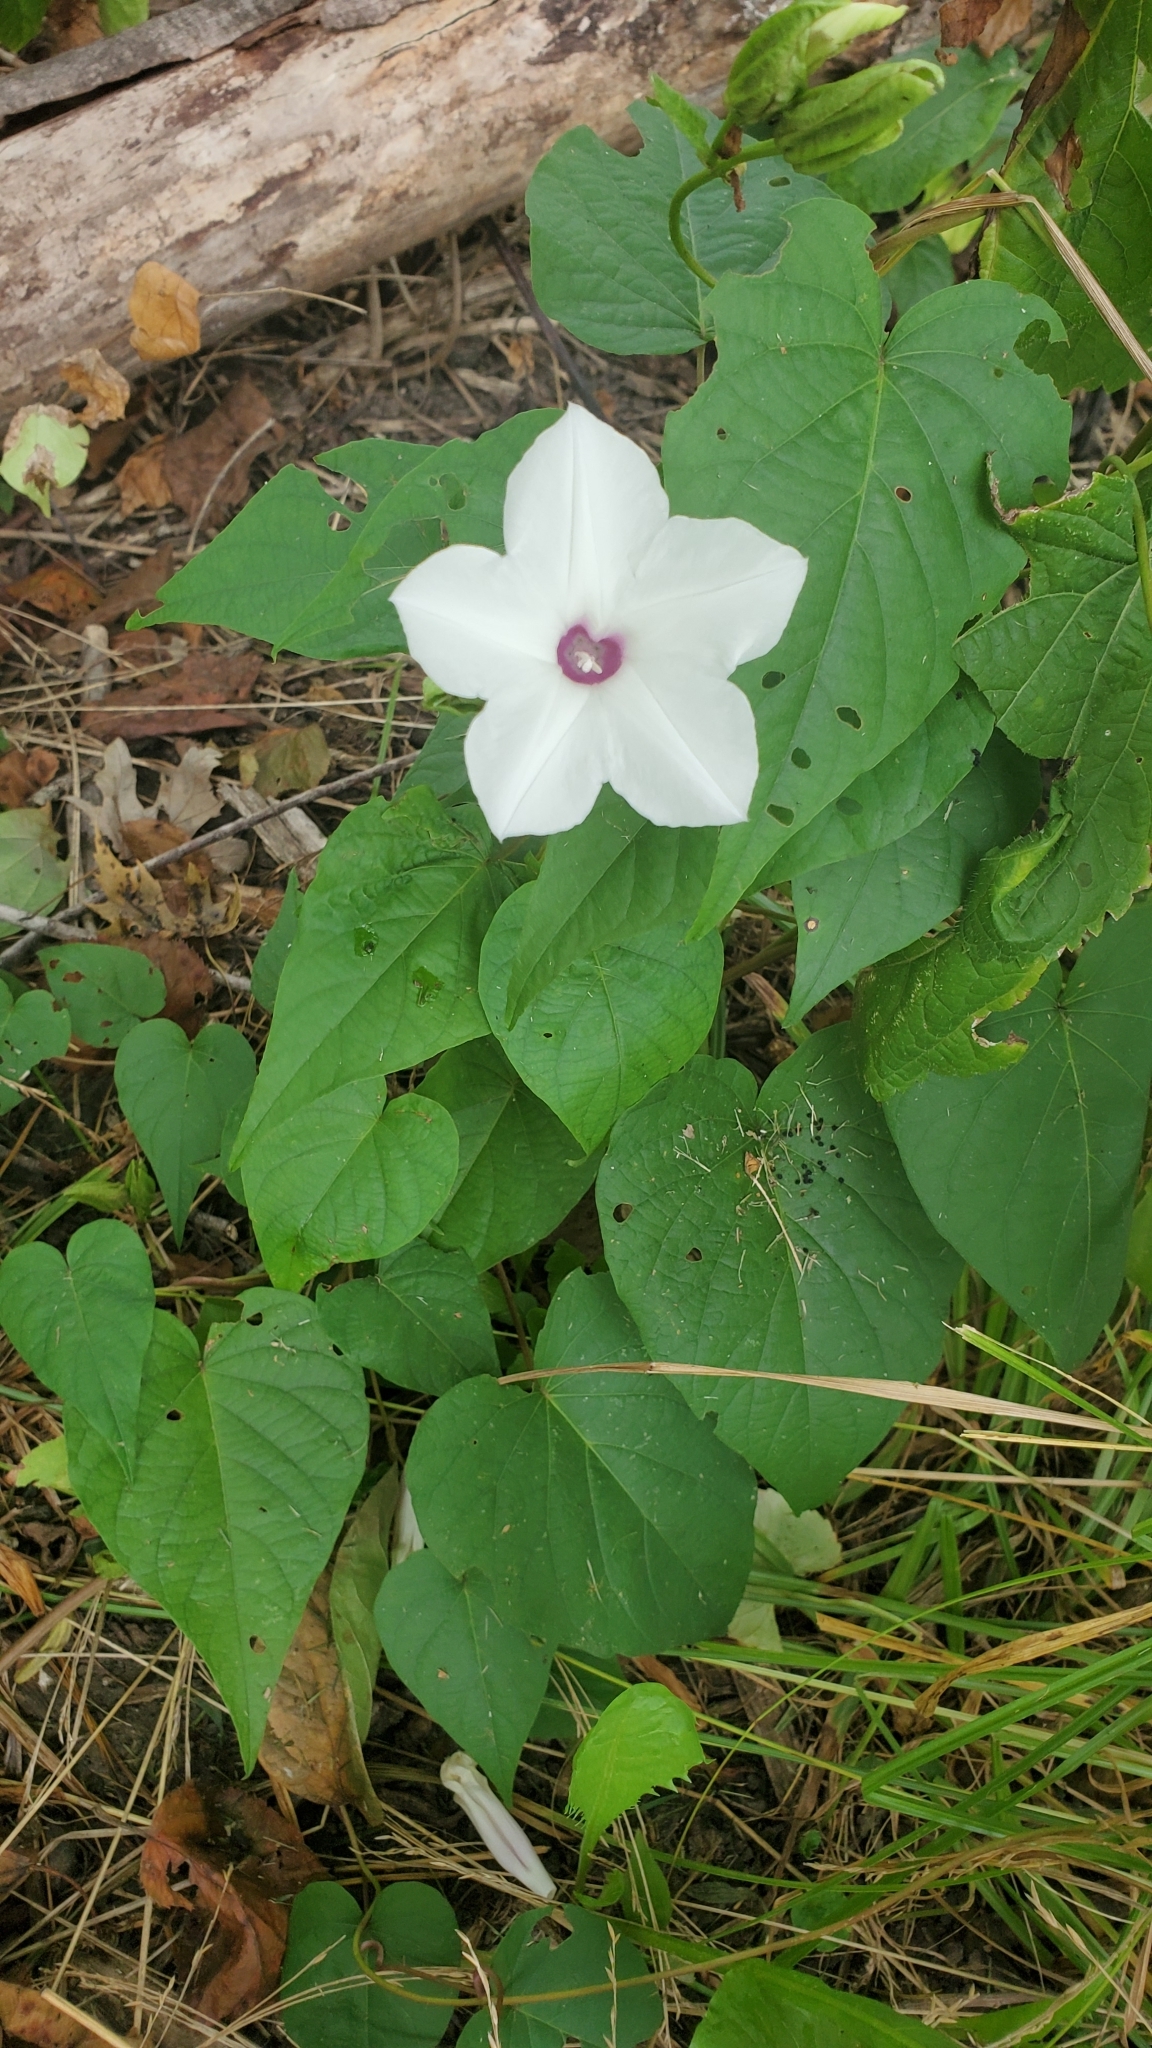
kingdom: Plantae
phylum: Tracheophyta
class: Magnoliopsida
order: Solanales
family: Convolvulaceae
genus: Ipomoea
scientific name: Ipomoea pandurata
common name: Man-of-the-earth
